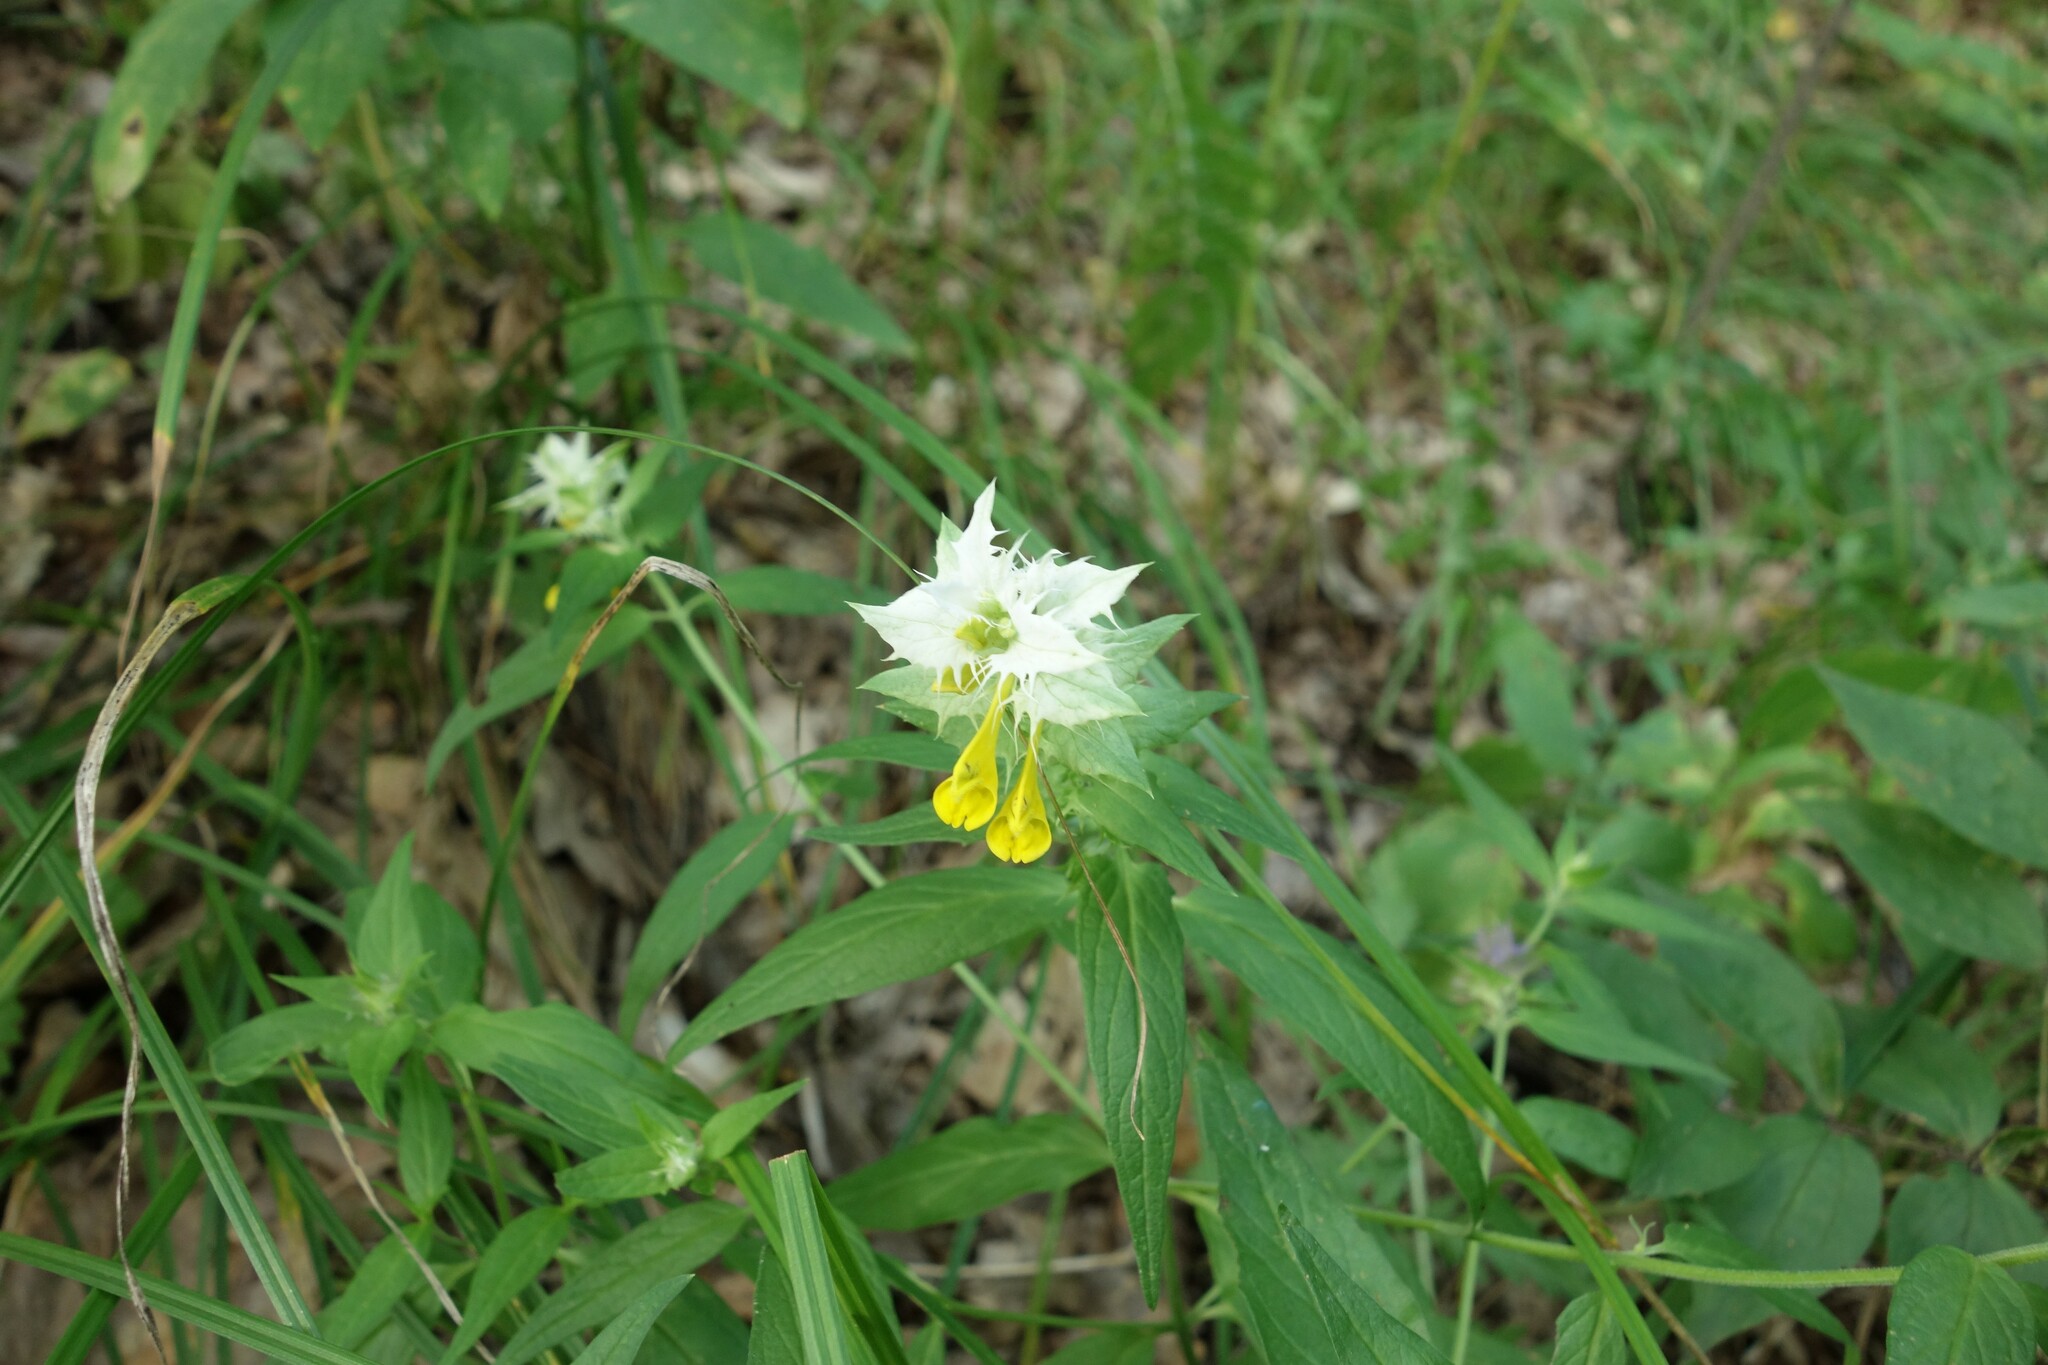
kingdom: Plantae
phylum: Tracheophyta
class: Magnoliopsida
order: Lamiales
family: Orobanchaceae
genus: Melampyrum
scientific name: Melampyrum nemorosum
